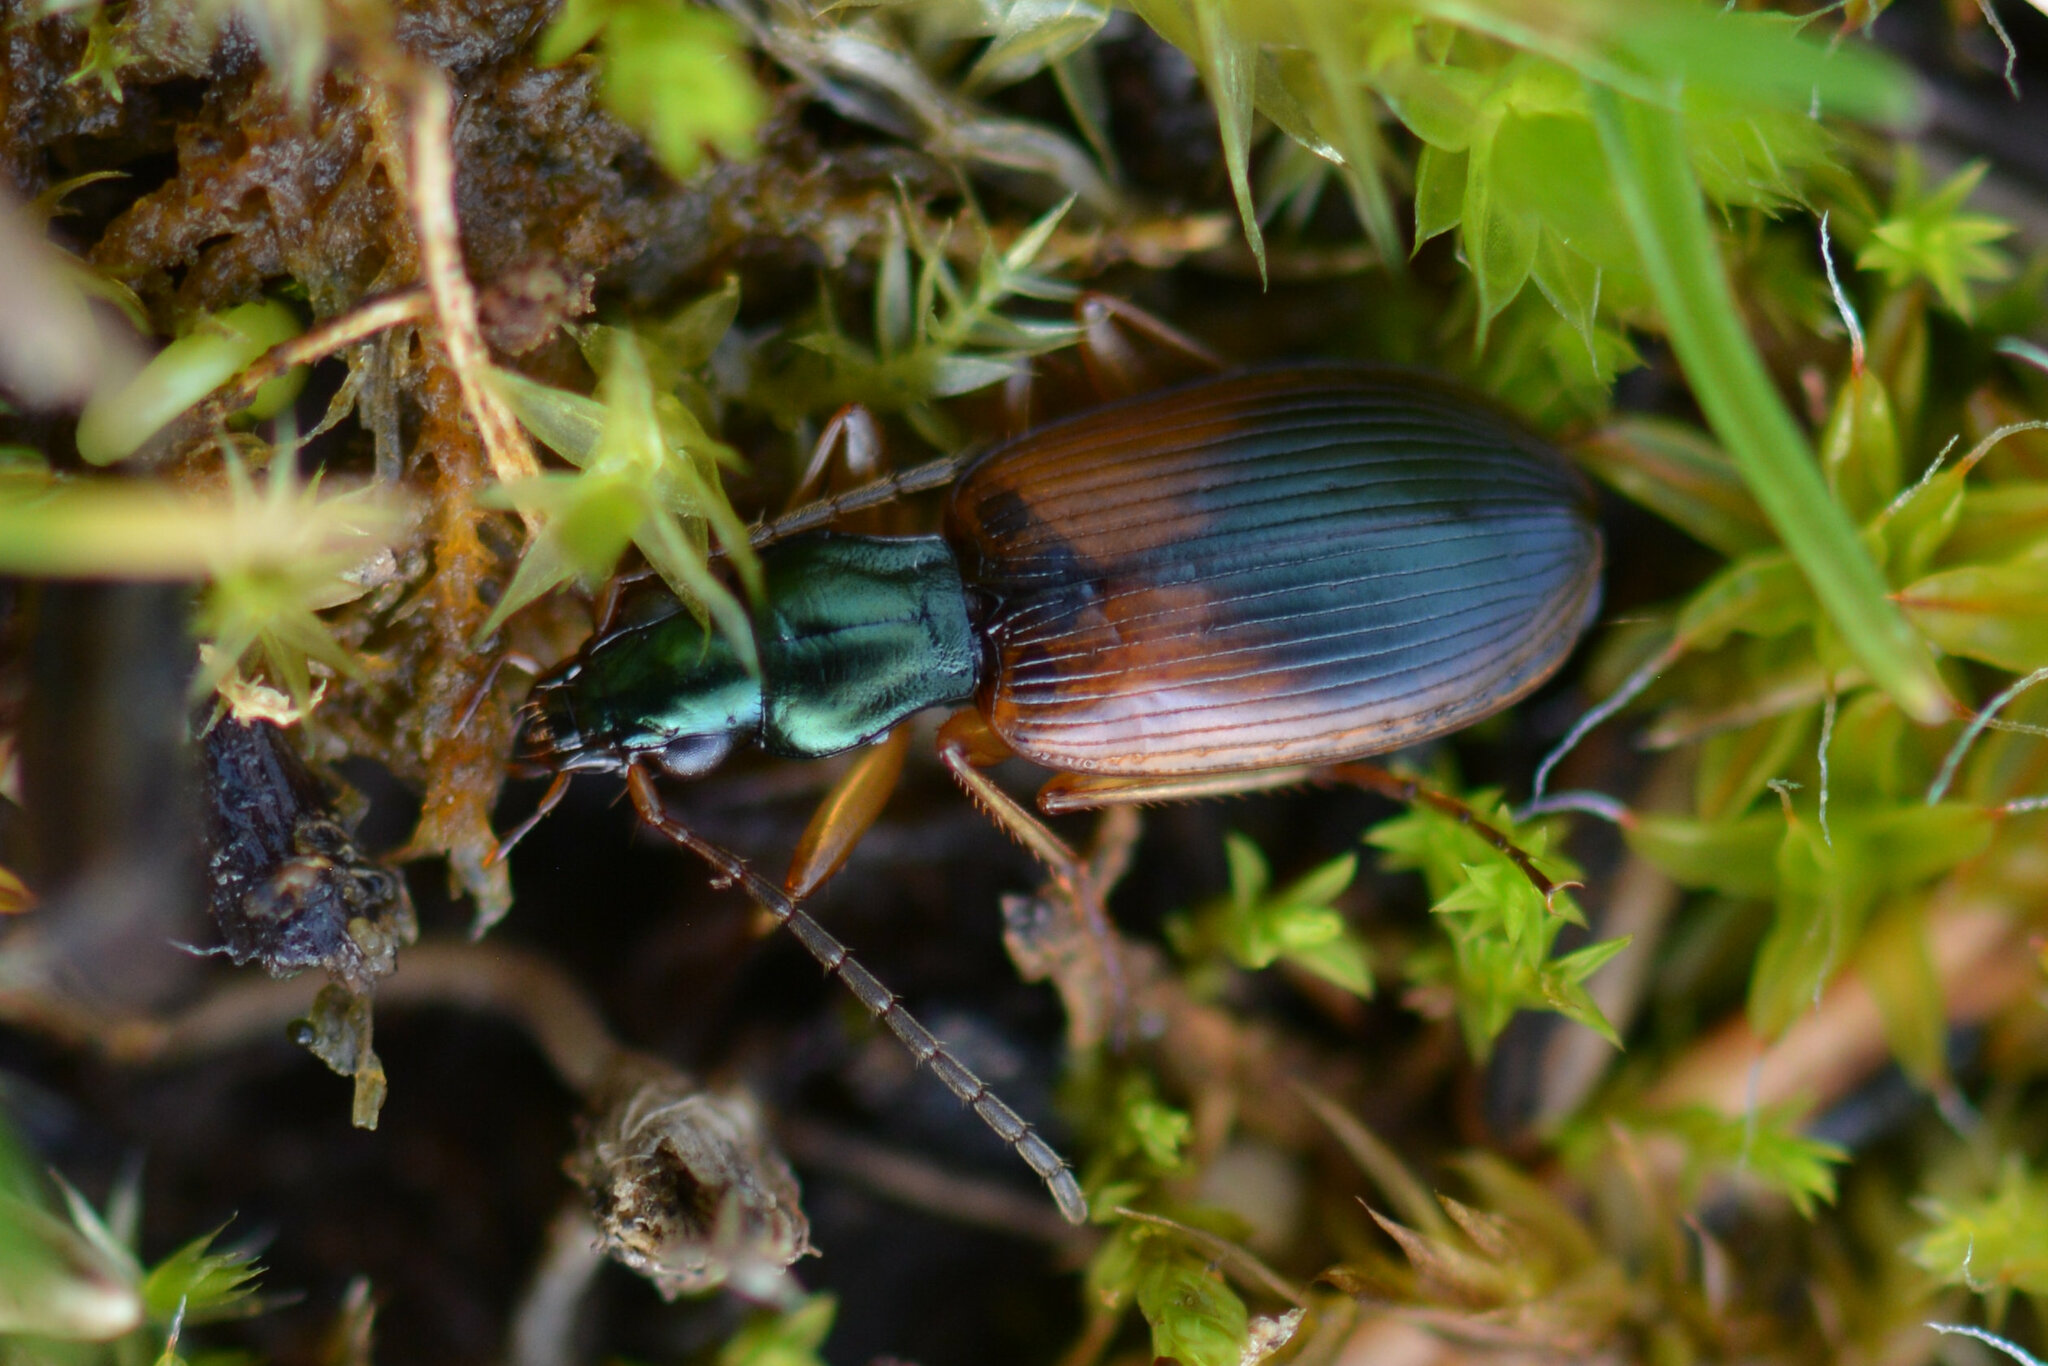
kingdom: Animalia
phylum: Arthropoda
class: Insecta
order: Coleoptera
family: Carabidae
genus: Anchomenus
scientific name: Anchomenus dorsalis
